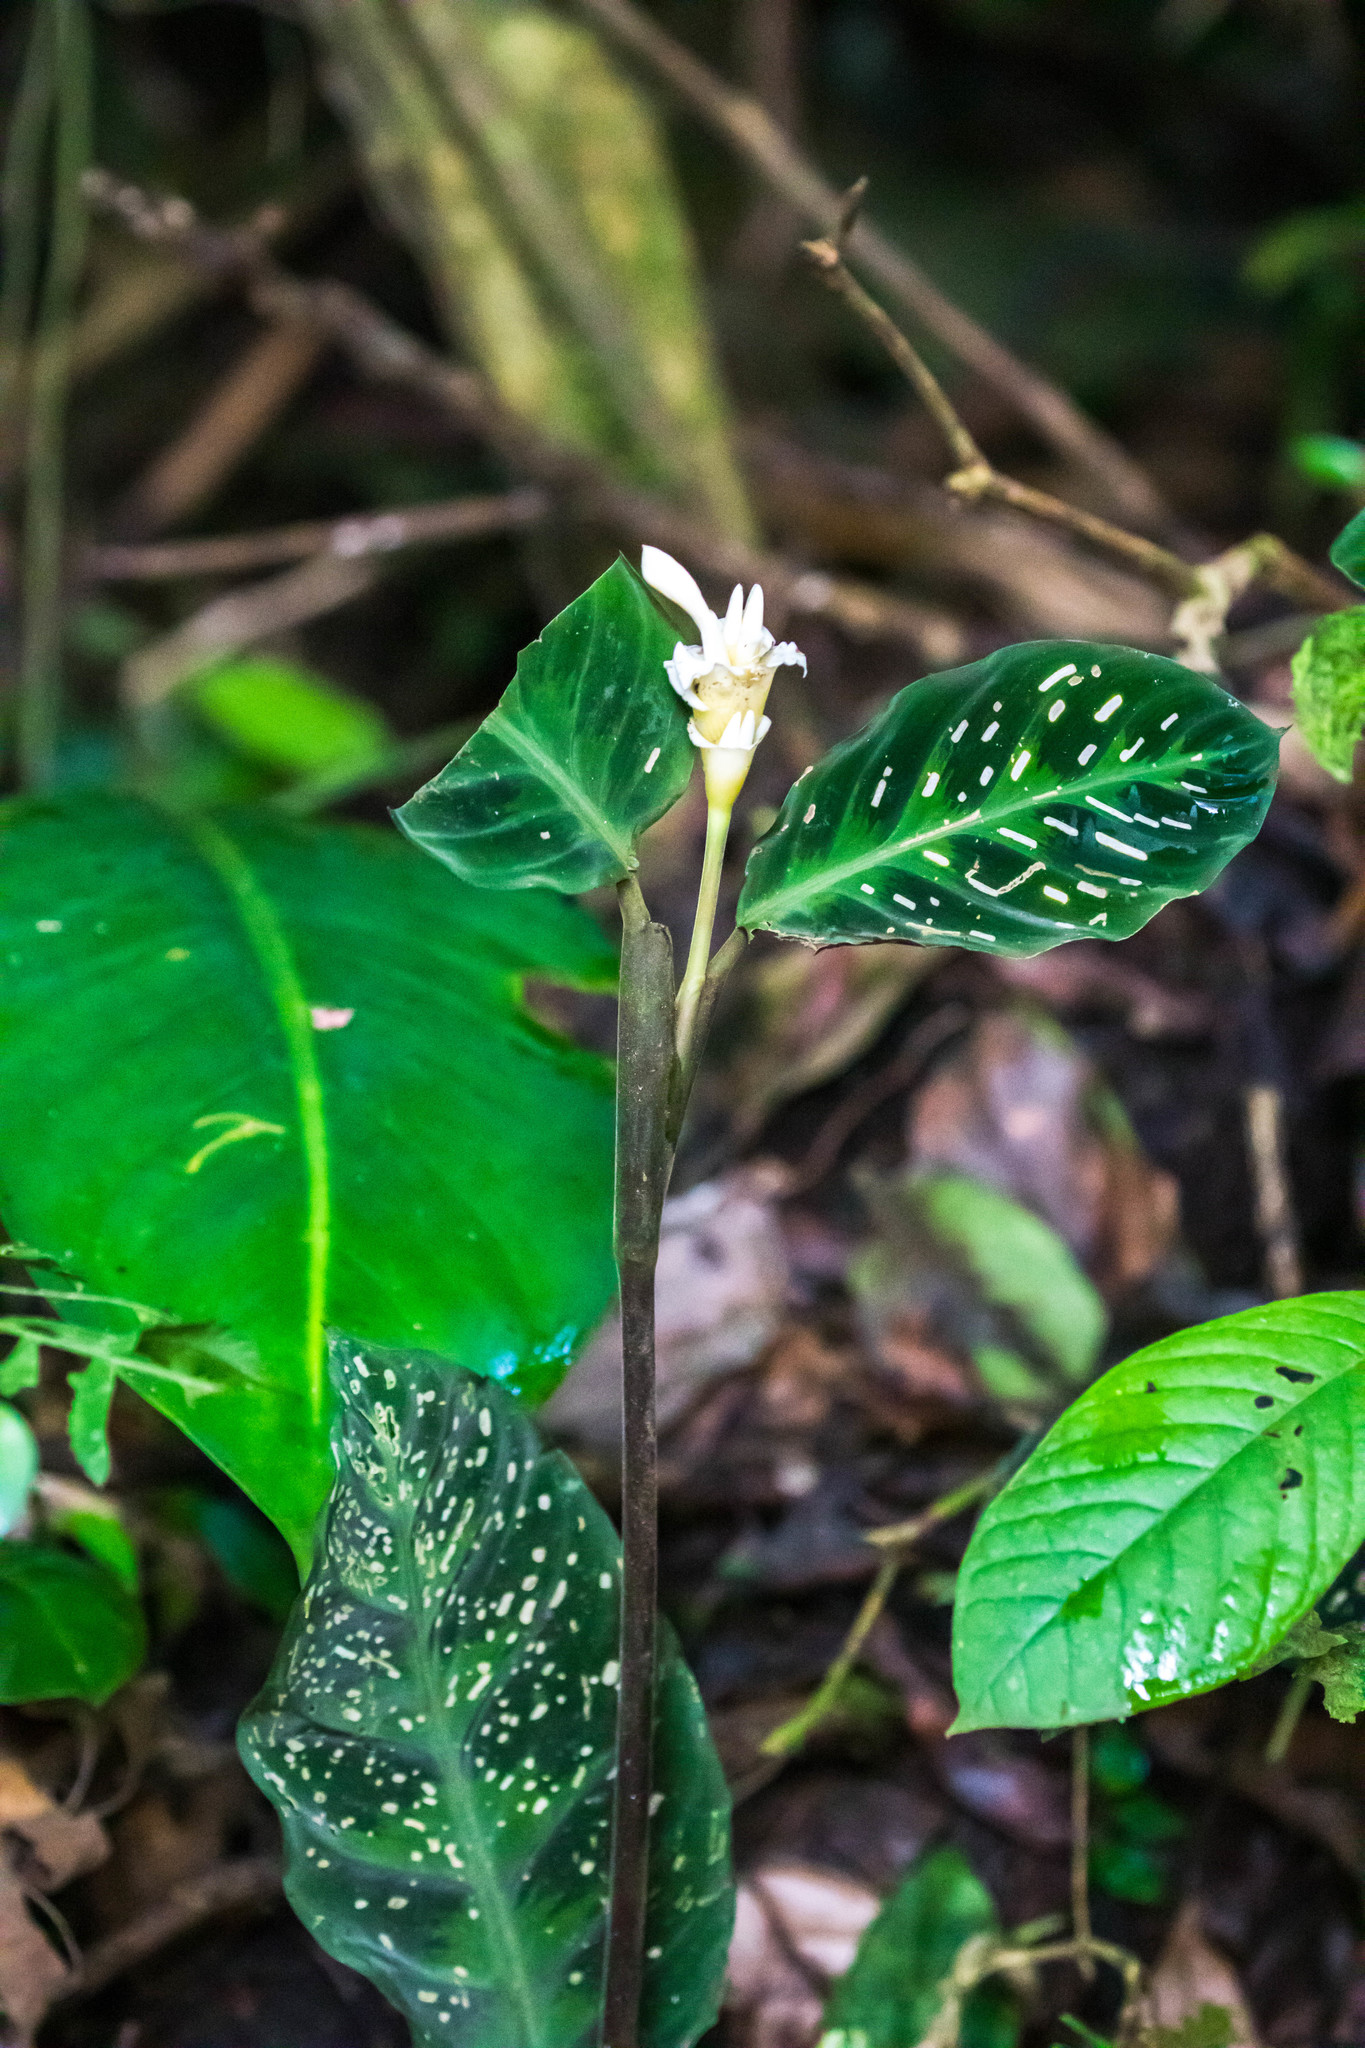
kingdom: Plantae
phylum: Tracheophyta
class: Liliopsida
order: Zingiberales
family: Marantaceae
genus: Goeppertia
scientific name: Goeppertia warszewiczii
